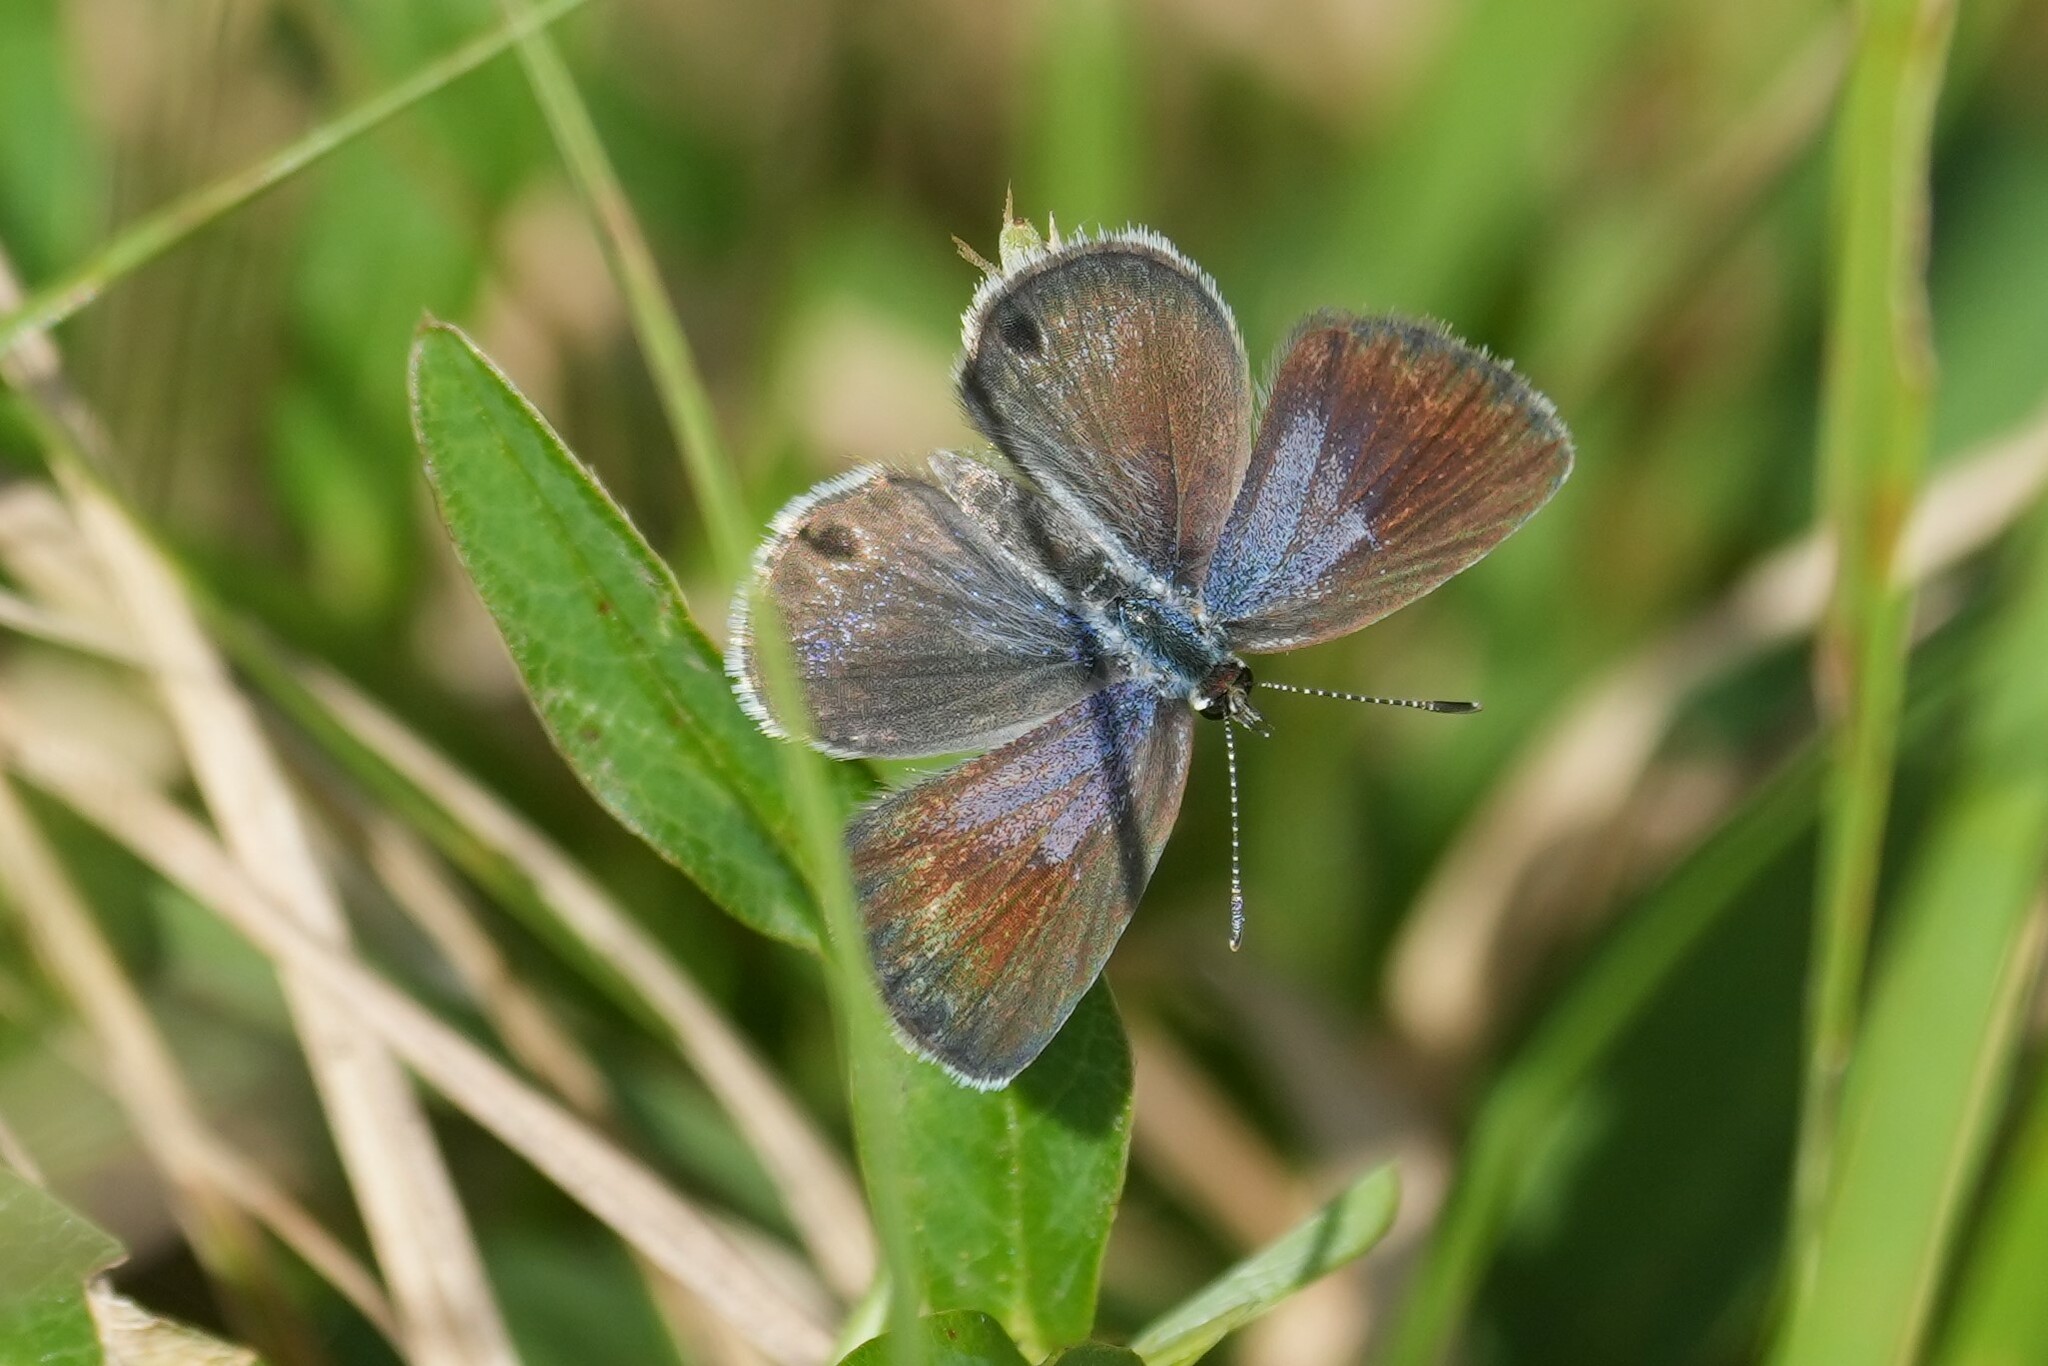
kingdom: Animalia
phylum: Arthropoda
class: Insecta
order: Lepidoptera
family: Lycaenidae
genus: Hemiargus
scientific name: Hemiargus ceraunus
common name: Ceraunus blue
